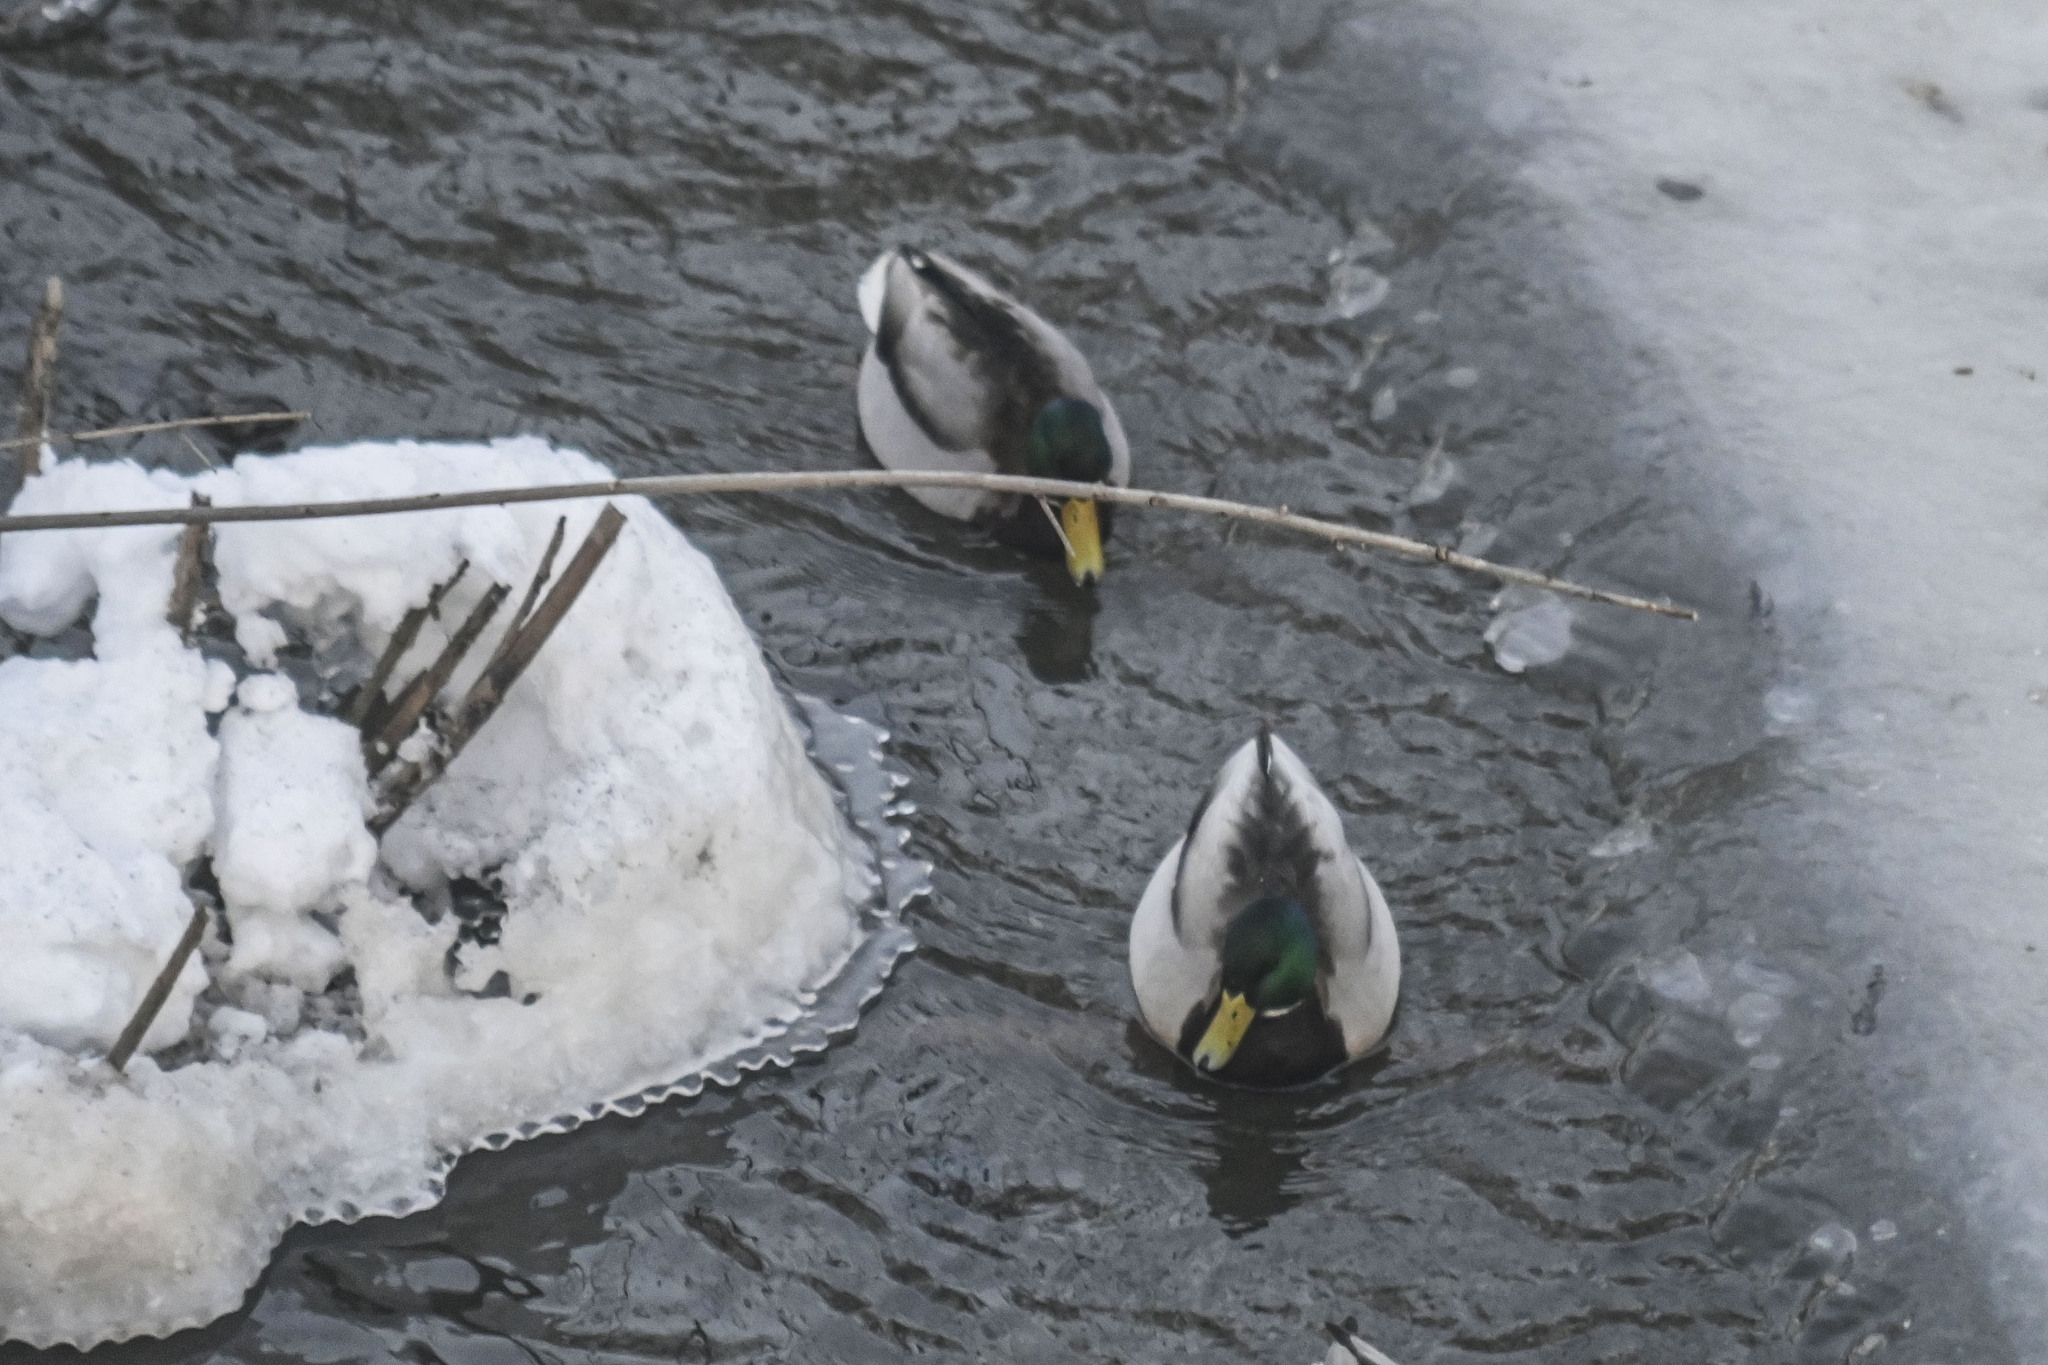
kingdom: Animalia
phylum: Chordata
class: Aves
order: Anseriformes
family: Anatidae
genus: Anas
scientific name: Anas platyrhynchos
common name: Mallard
